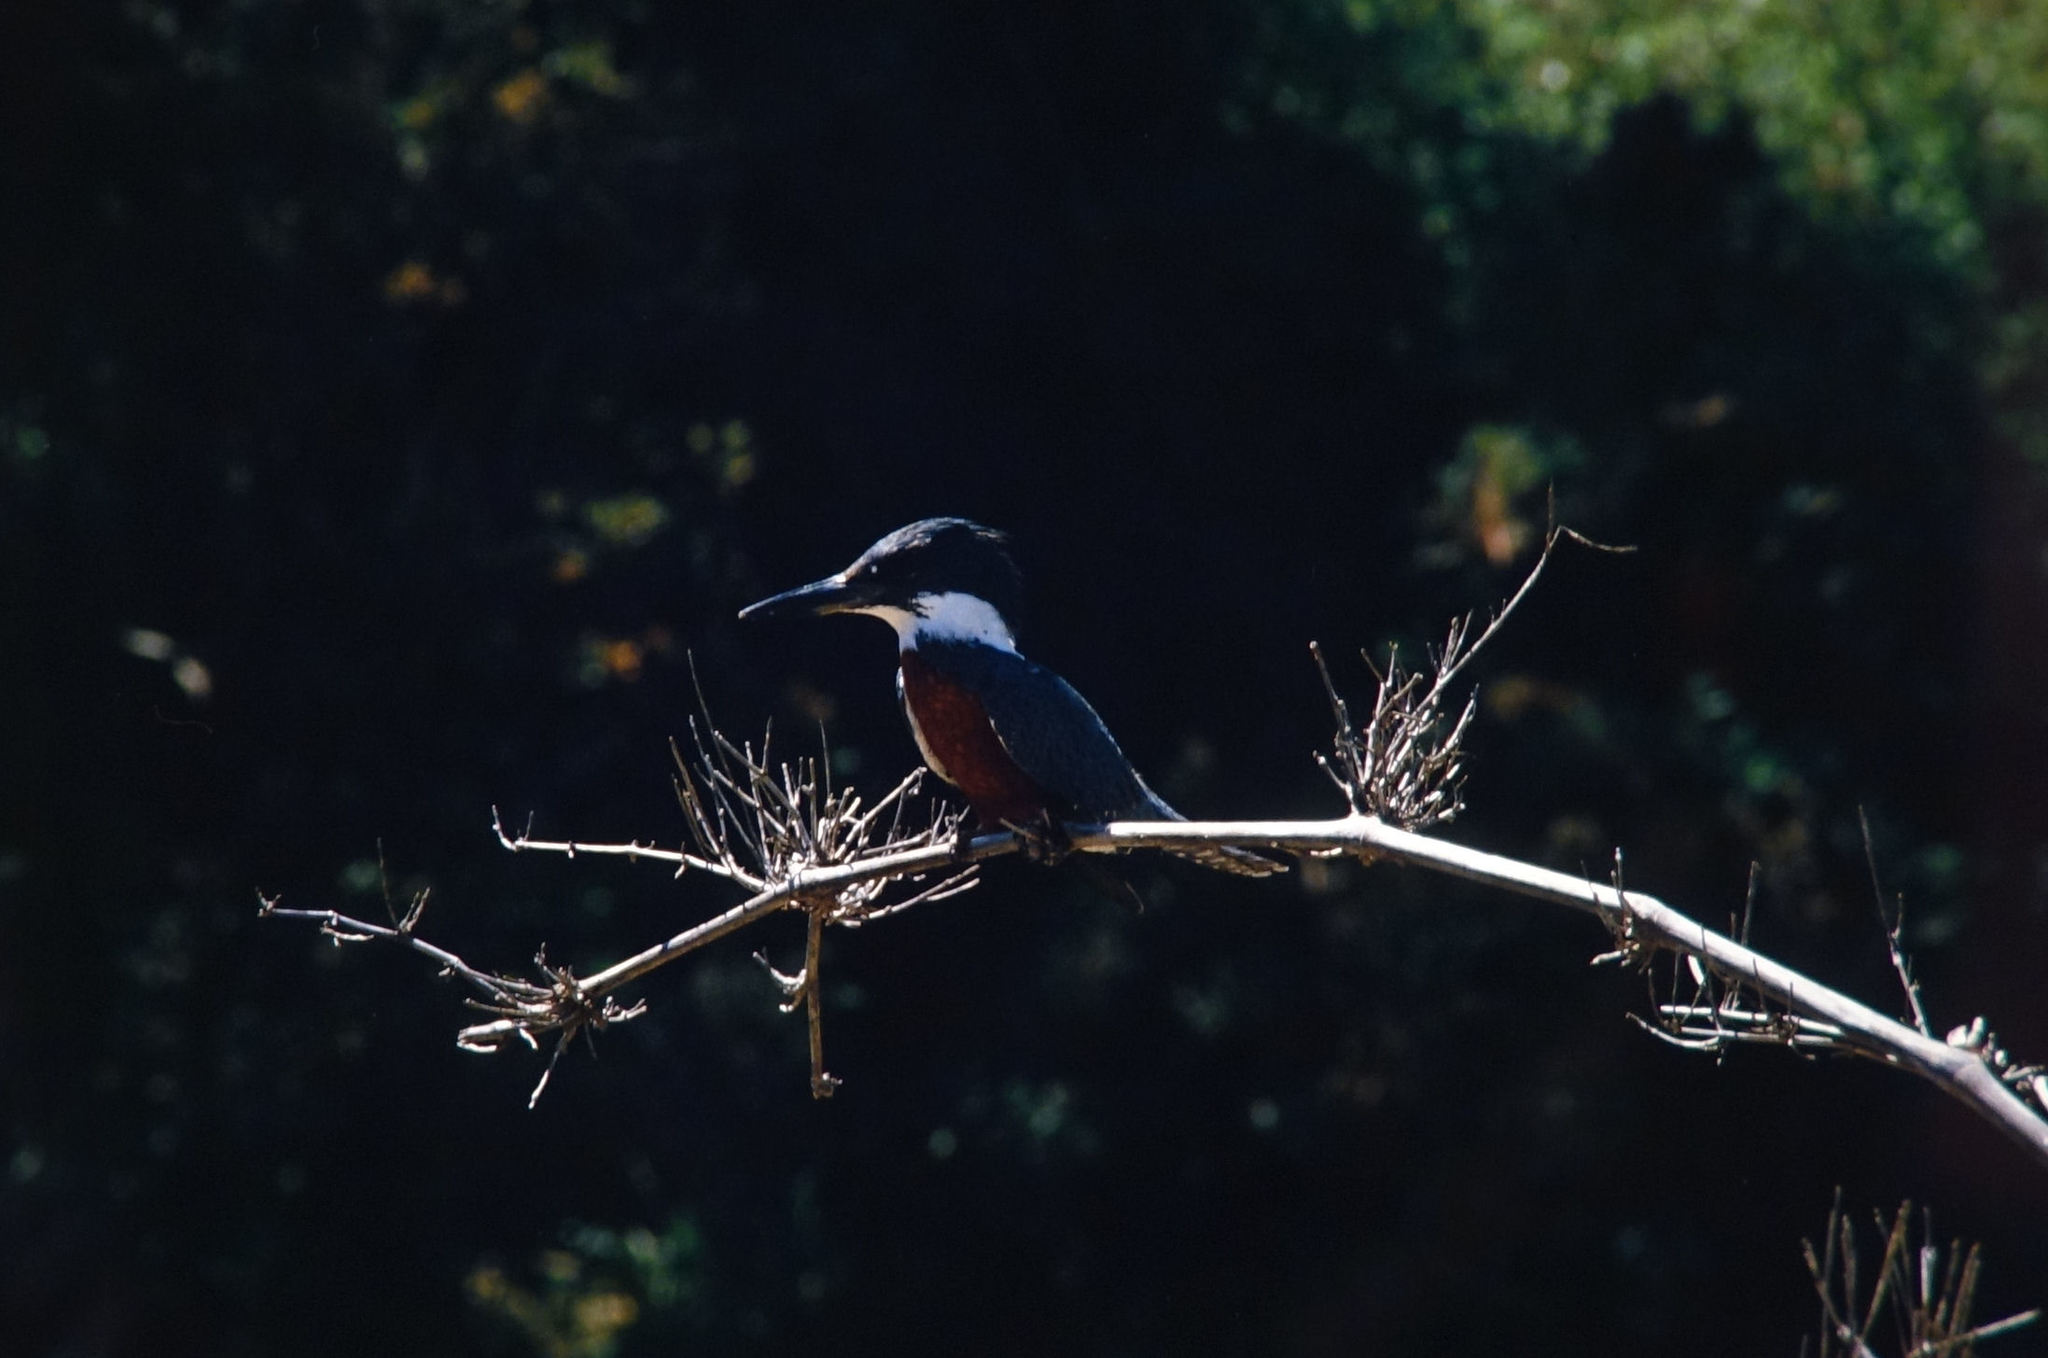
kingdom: Animalia
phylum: Chordata
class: Aves
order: Coraciiformes
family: Alcedinidae
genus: Megaceryle
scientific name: Megaceryle torquata
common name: Ringed kingfisher
